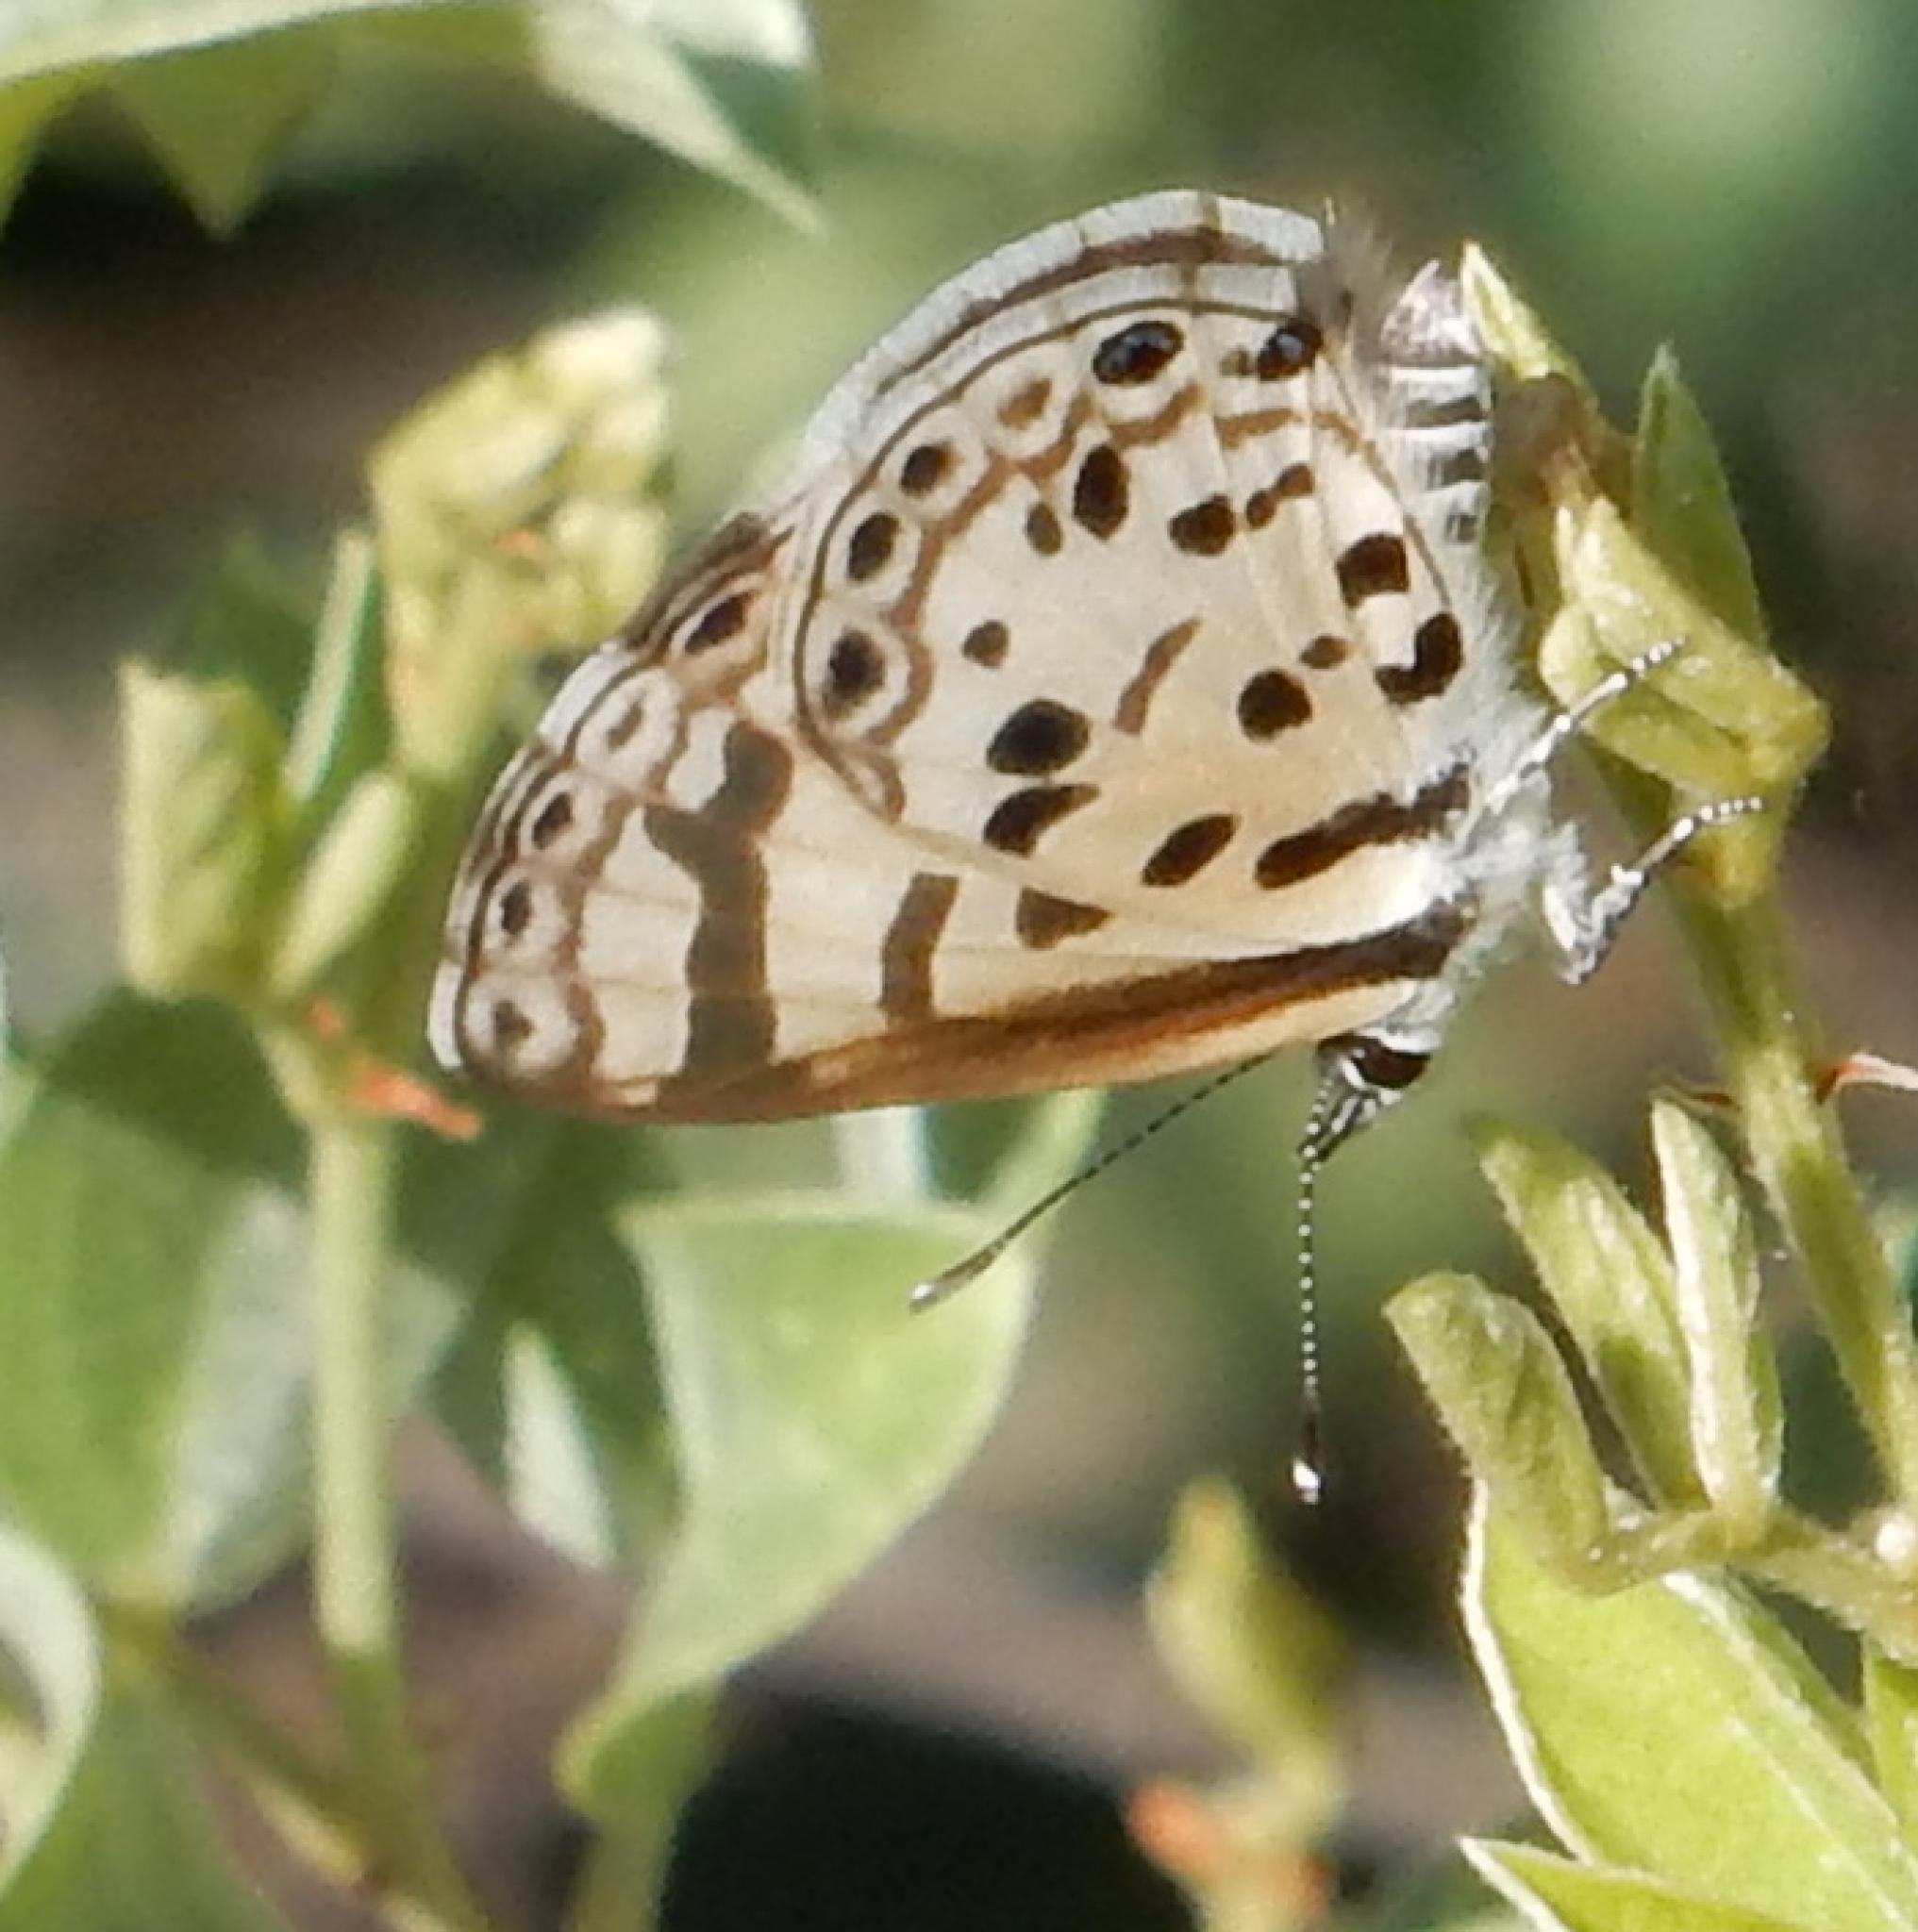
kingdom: Animalia
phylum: Arthropoda
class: Insecta
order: Lepidoptera
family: Lycaenidae
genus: Azanus
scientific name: Azanus natalensis
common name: Natal babul blue
